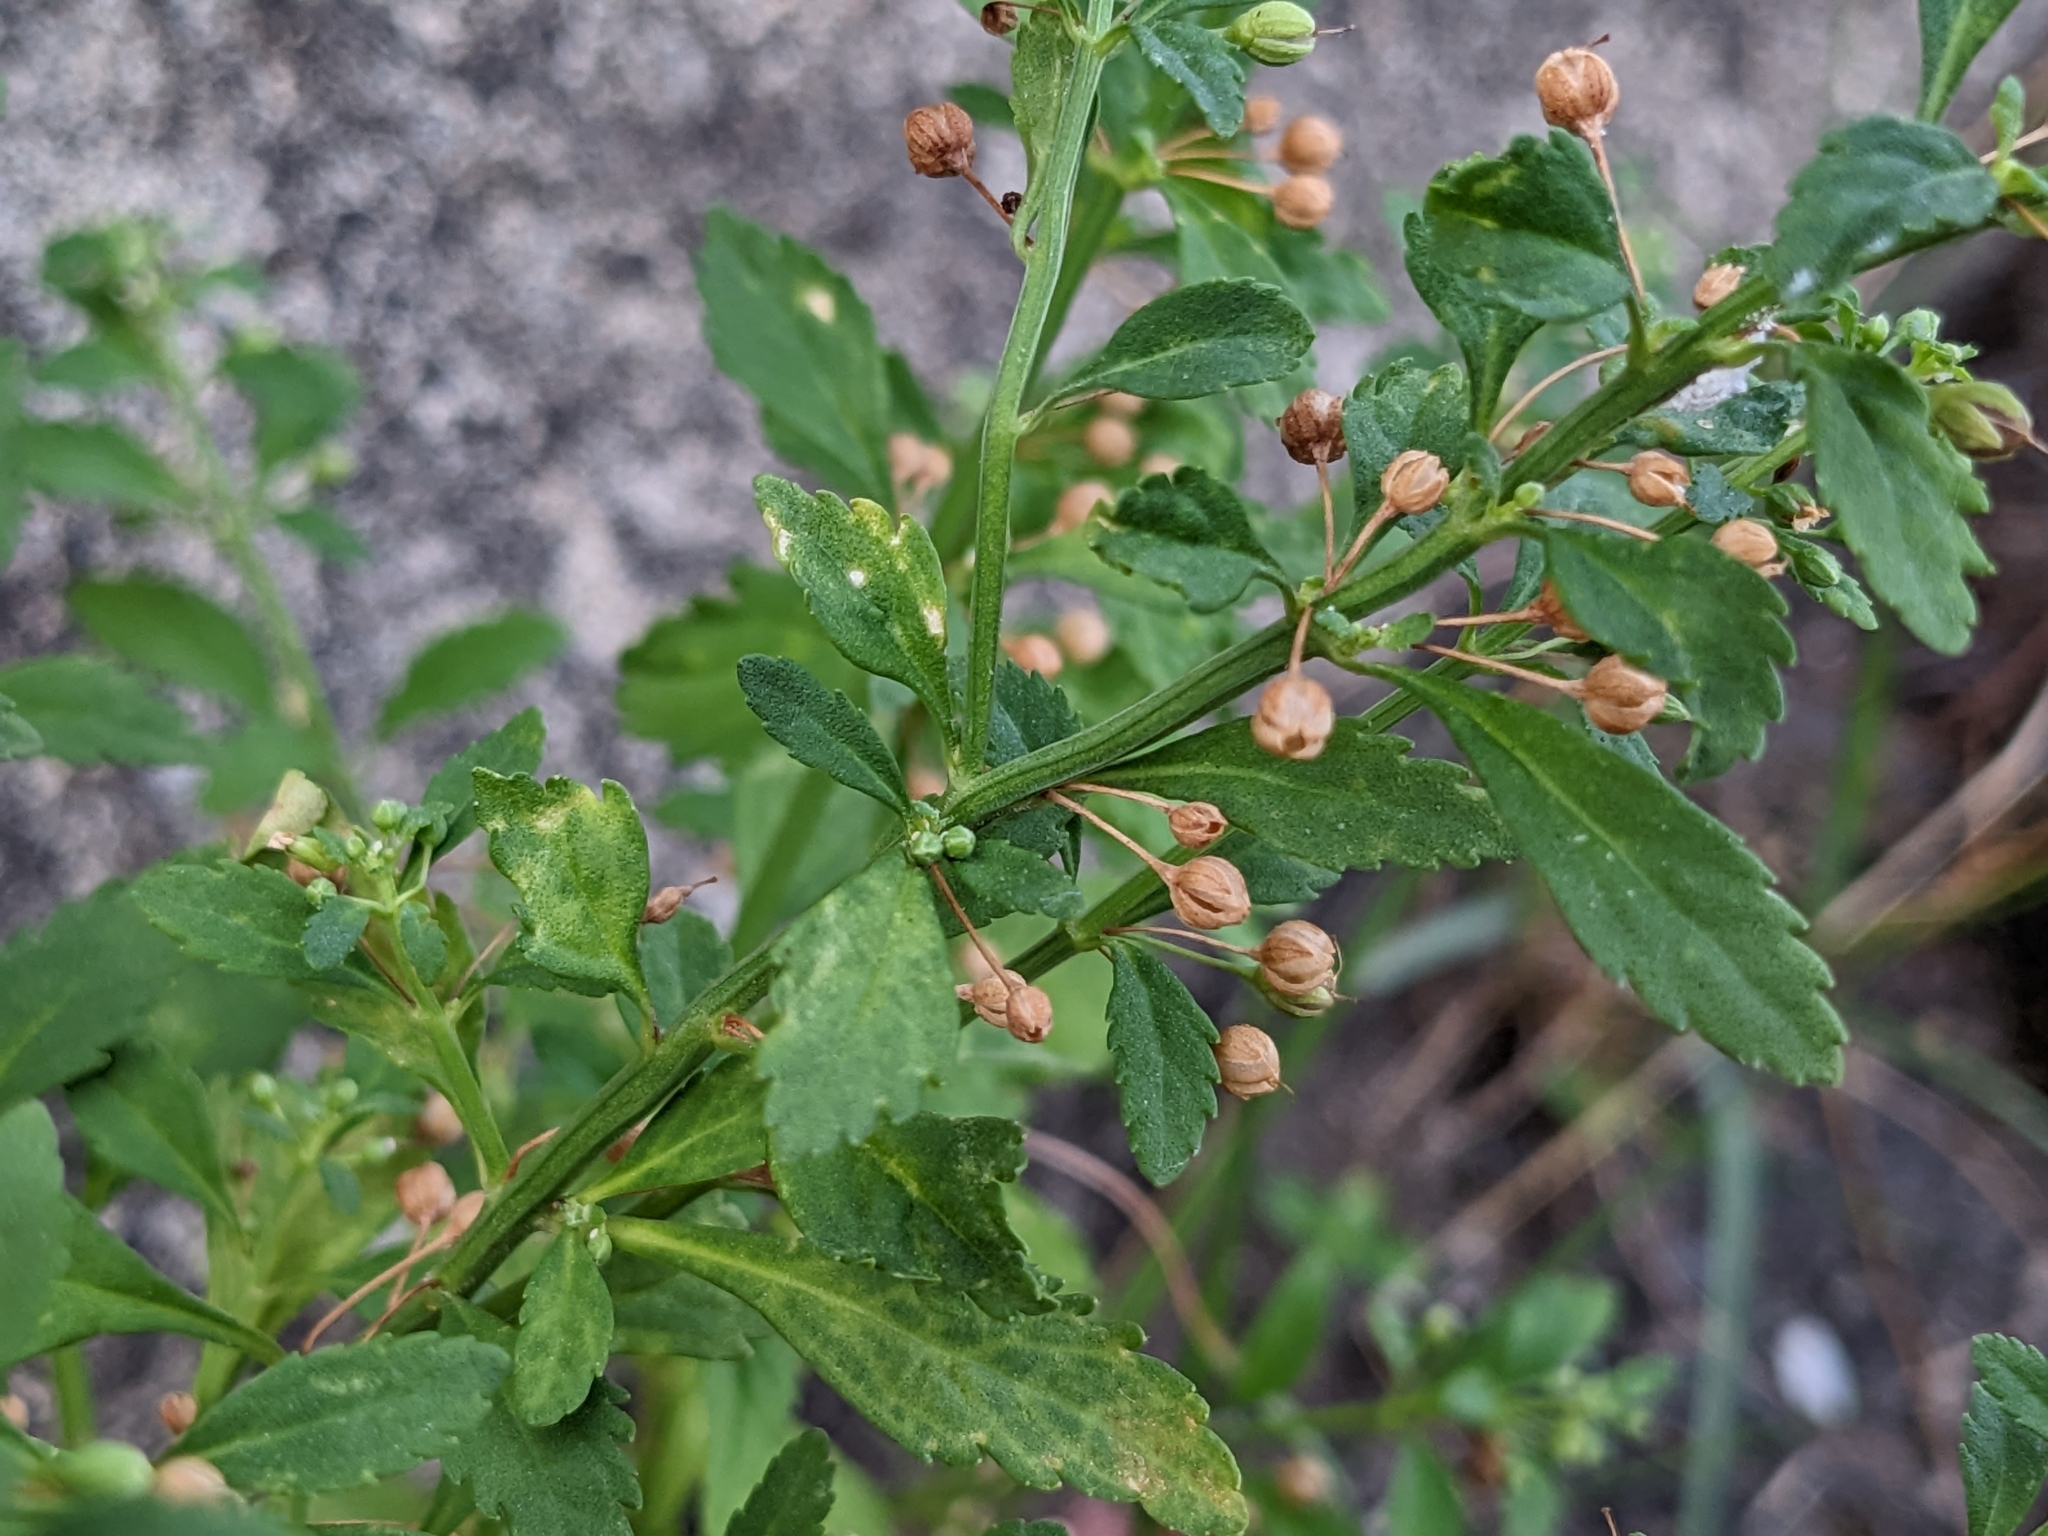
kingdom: Plantae
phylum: Tracheophyta
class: Magnoliopsida
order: Lamiales
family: Plantaginaceae
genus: Scoparia
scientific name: Scoparia dulcis
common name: Scoparia-weed
